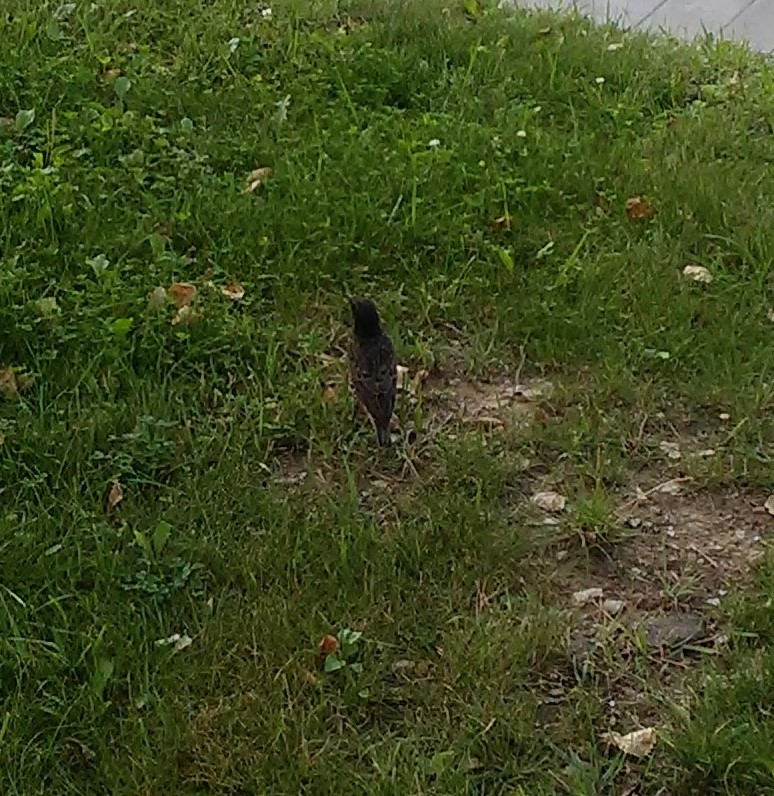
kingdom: Animalia
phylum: Chordata
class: Aves
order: Passeriformes
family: Sturnidae
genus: Sturnus
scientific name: Sturnus vulgaris
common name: Common starling
